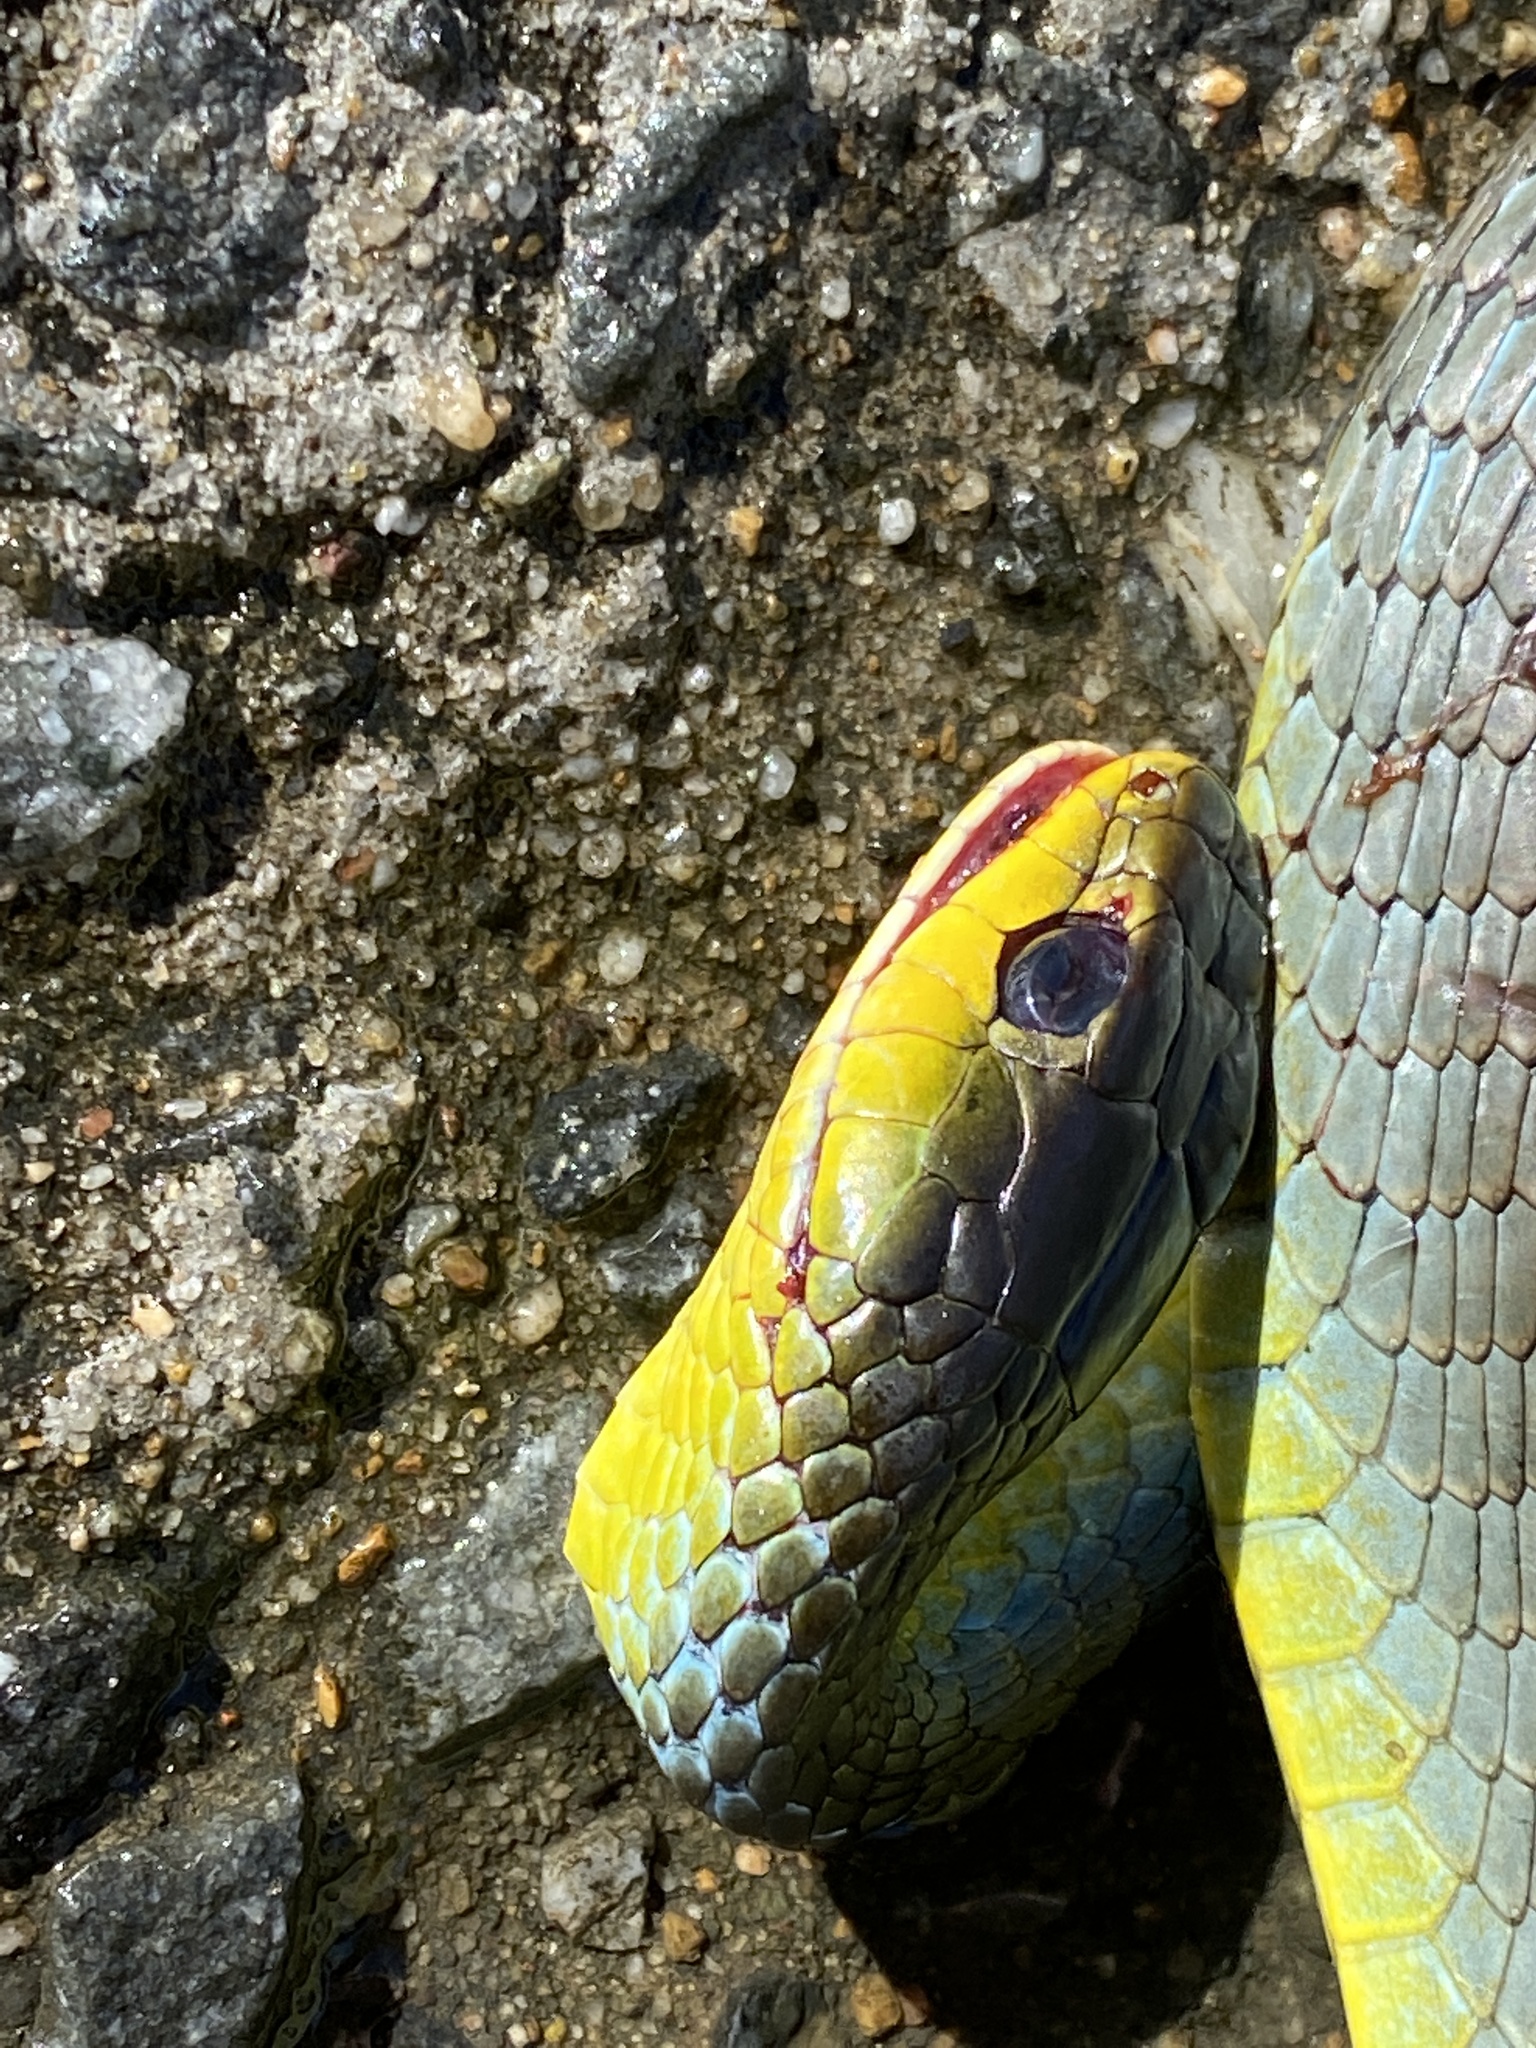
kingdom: Animalia
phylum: Chordata
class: Squamata
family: Colubridae
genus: Dendrelaphis
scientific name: Dendrelaphis punctulatus
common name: Common tree snake
